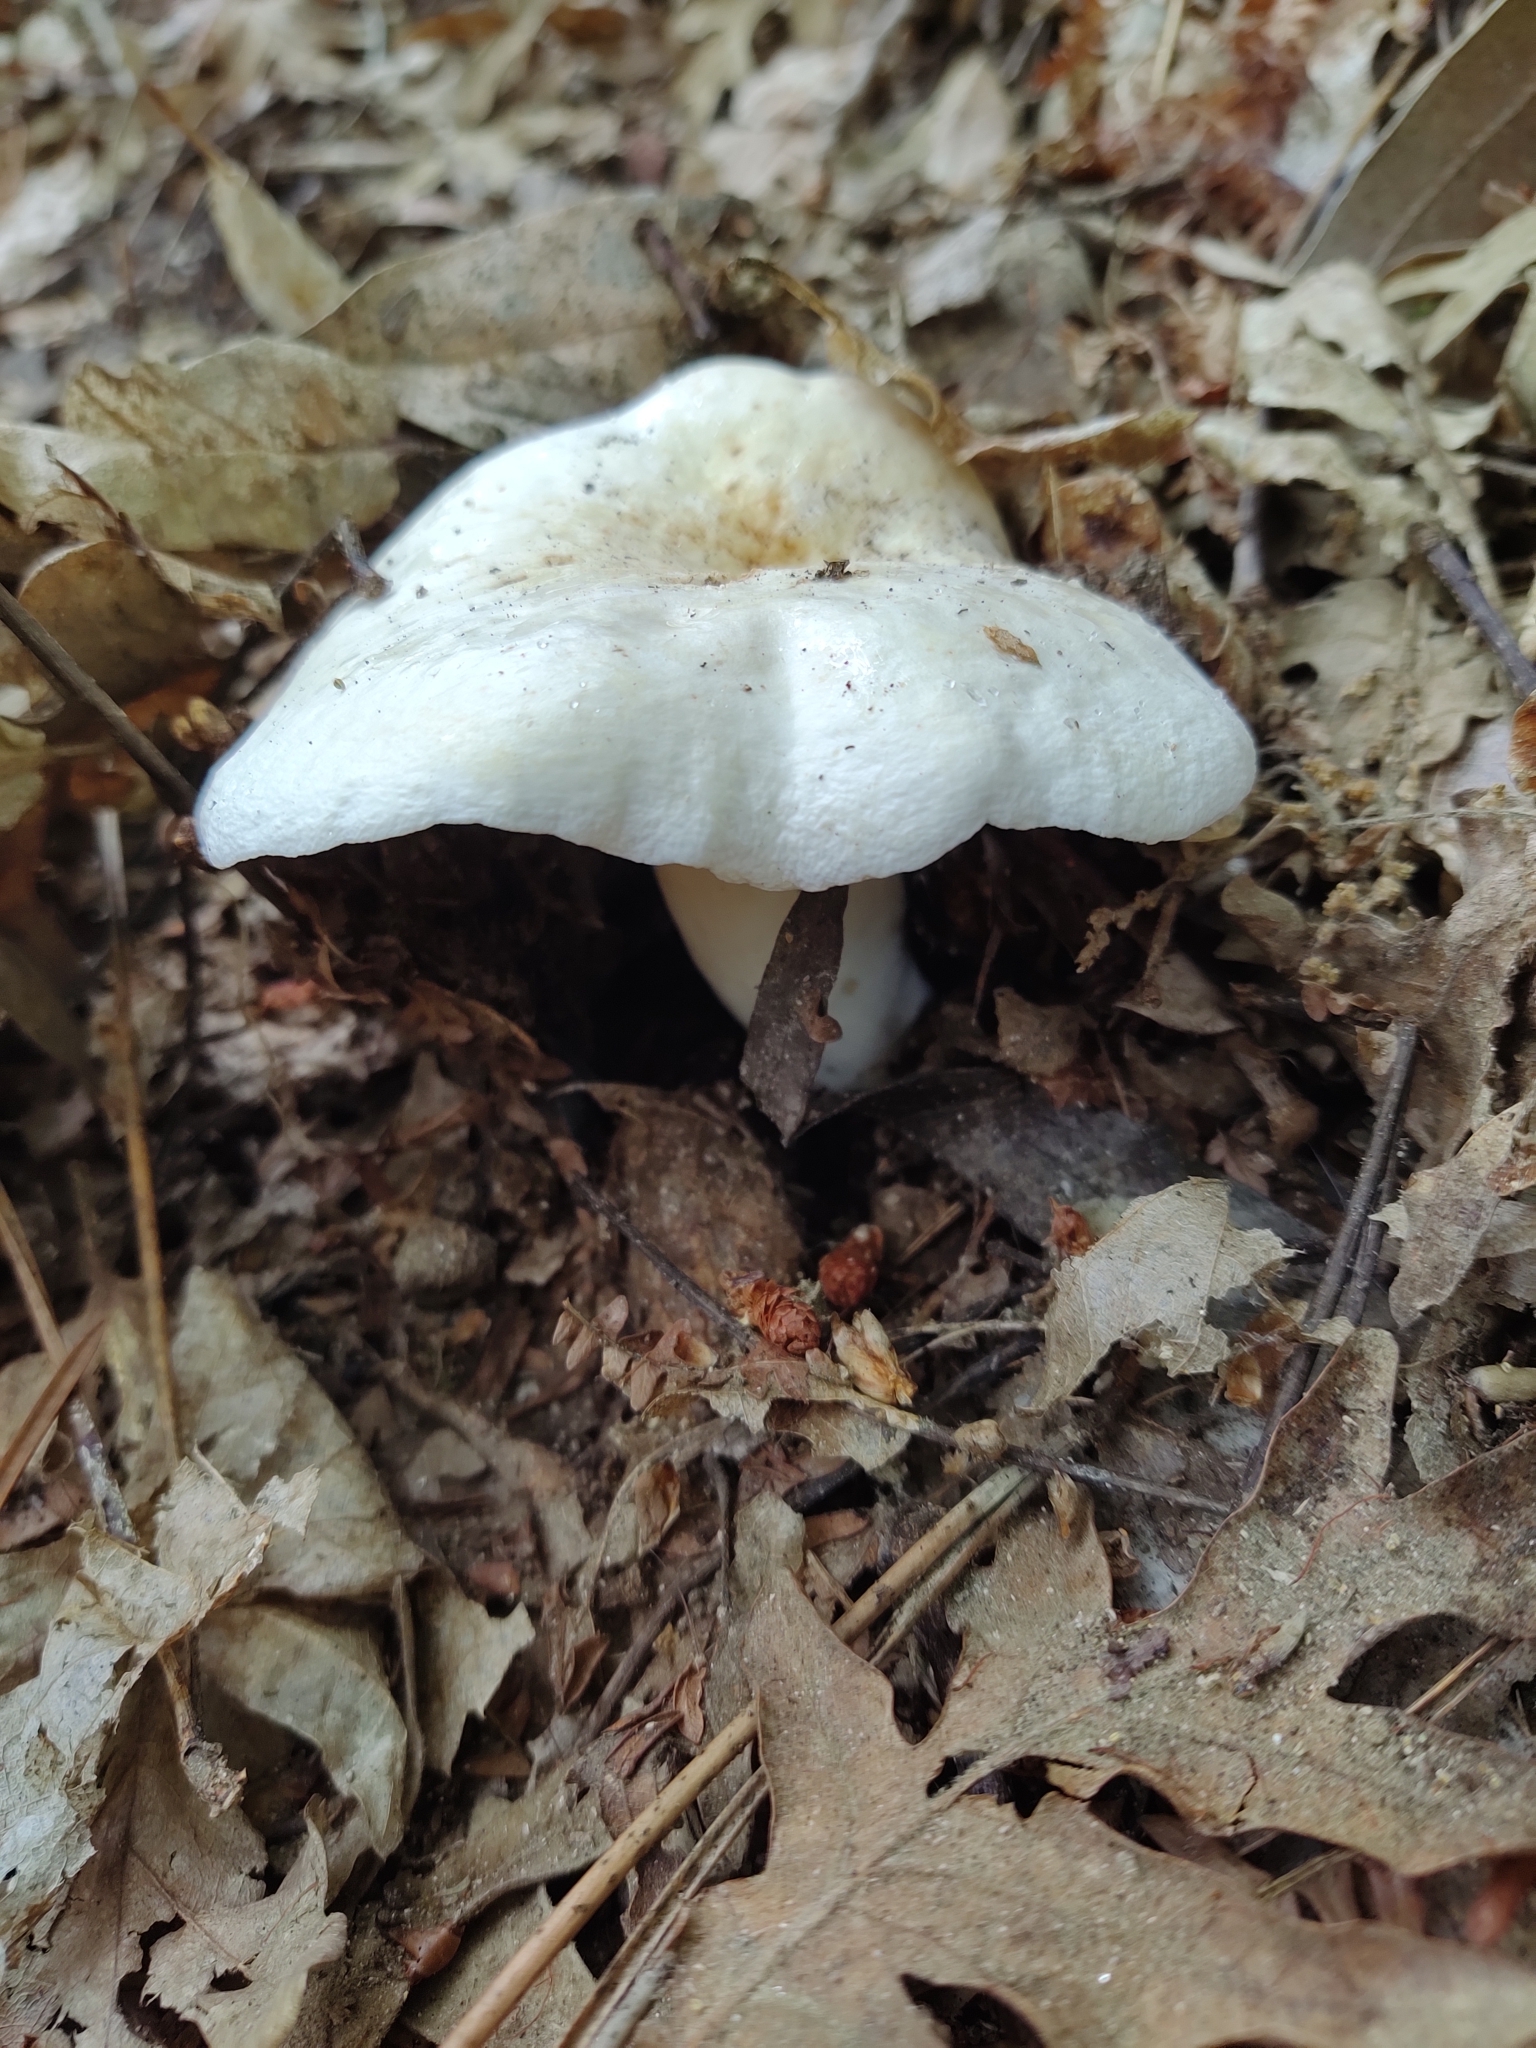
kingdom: Fungi
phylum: Basidiomycota
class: Agaricomycetes
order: Russulales
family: Russulaceae
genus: Lactifluus
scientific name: Lactifluus piperatus
